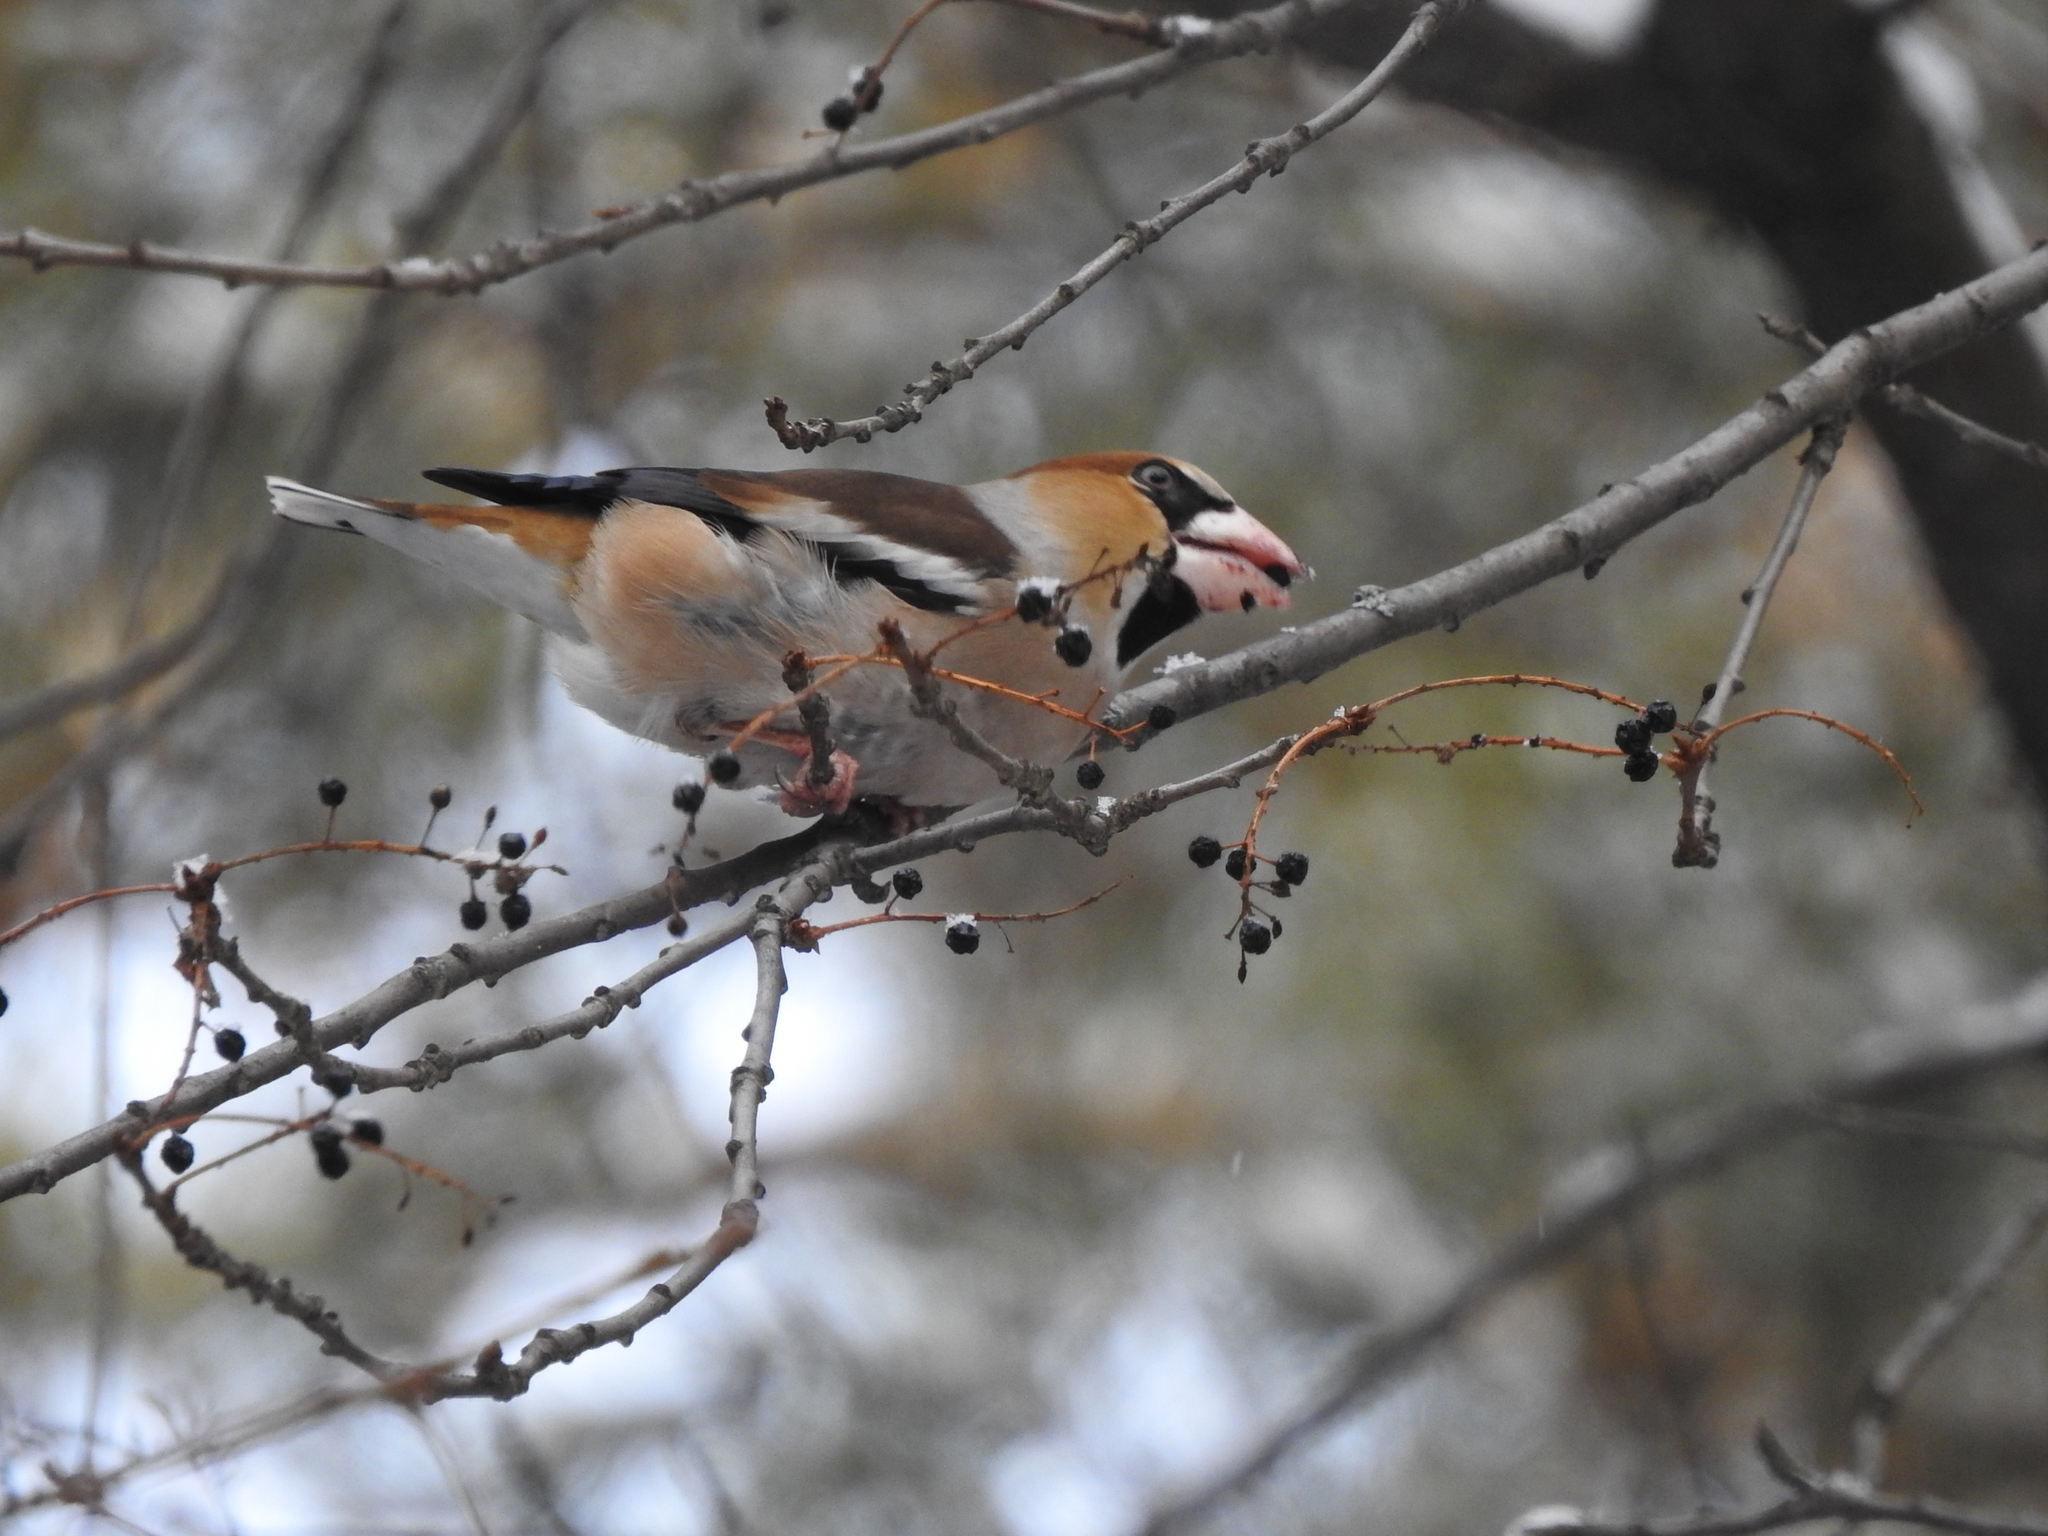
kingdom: Animalia
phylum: Chordata
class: Aves
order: Passeriformes
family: Fringillidae
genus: Coccothraustes
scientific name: Coccothraustes coccothraustes
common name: Hawfinch
